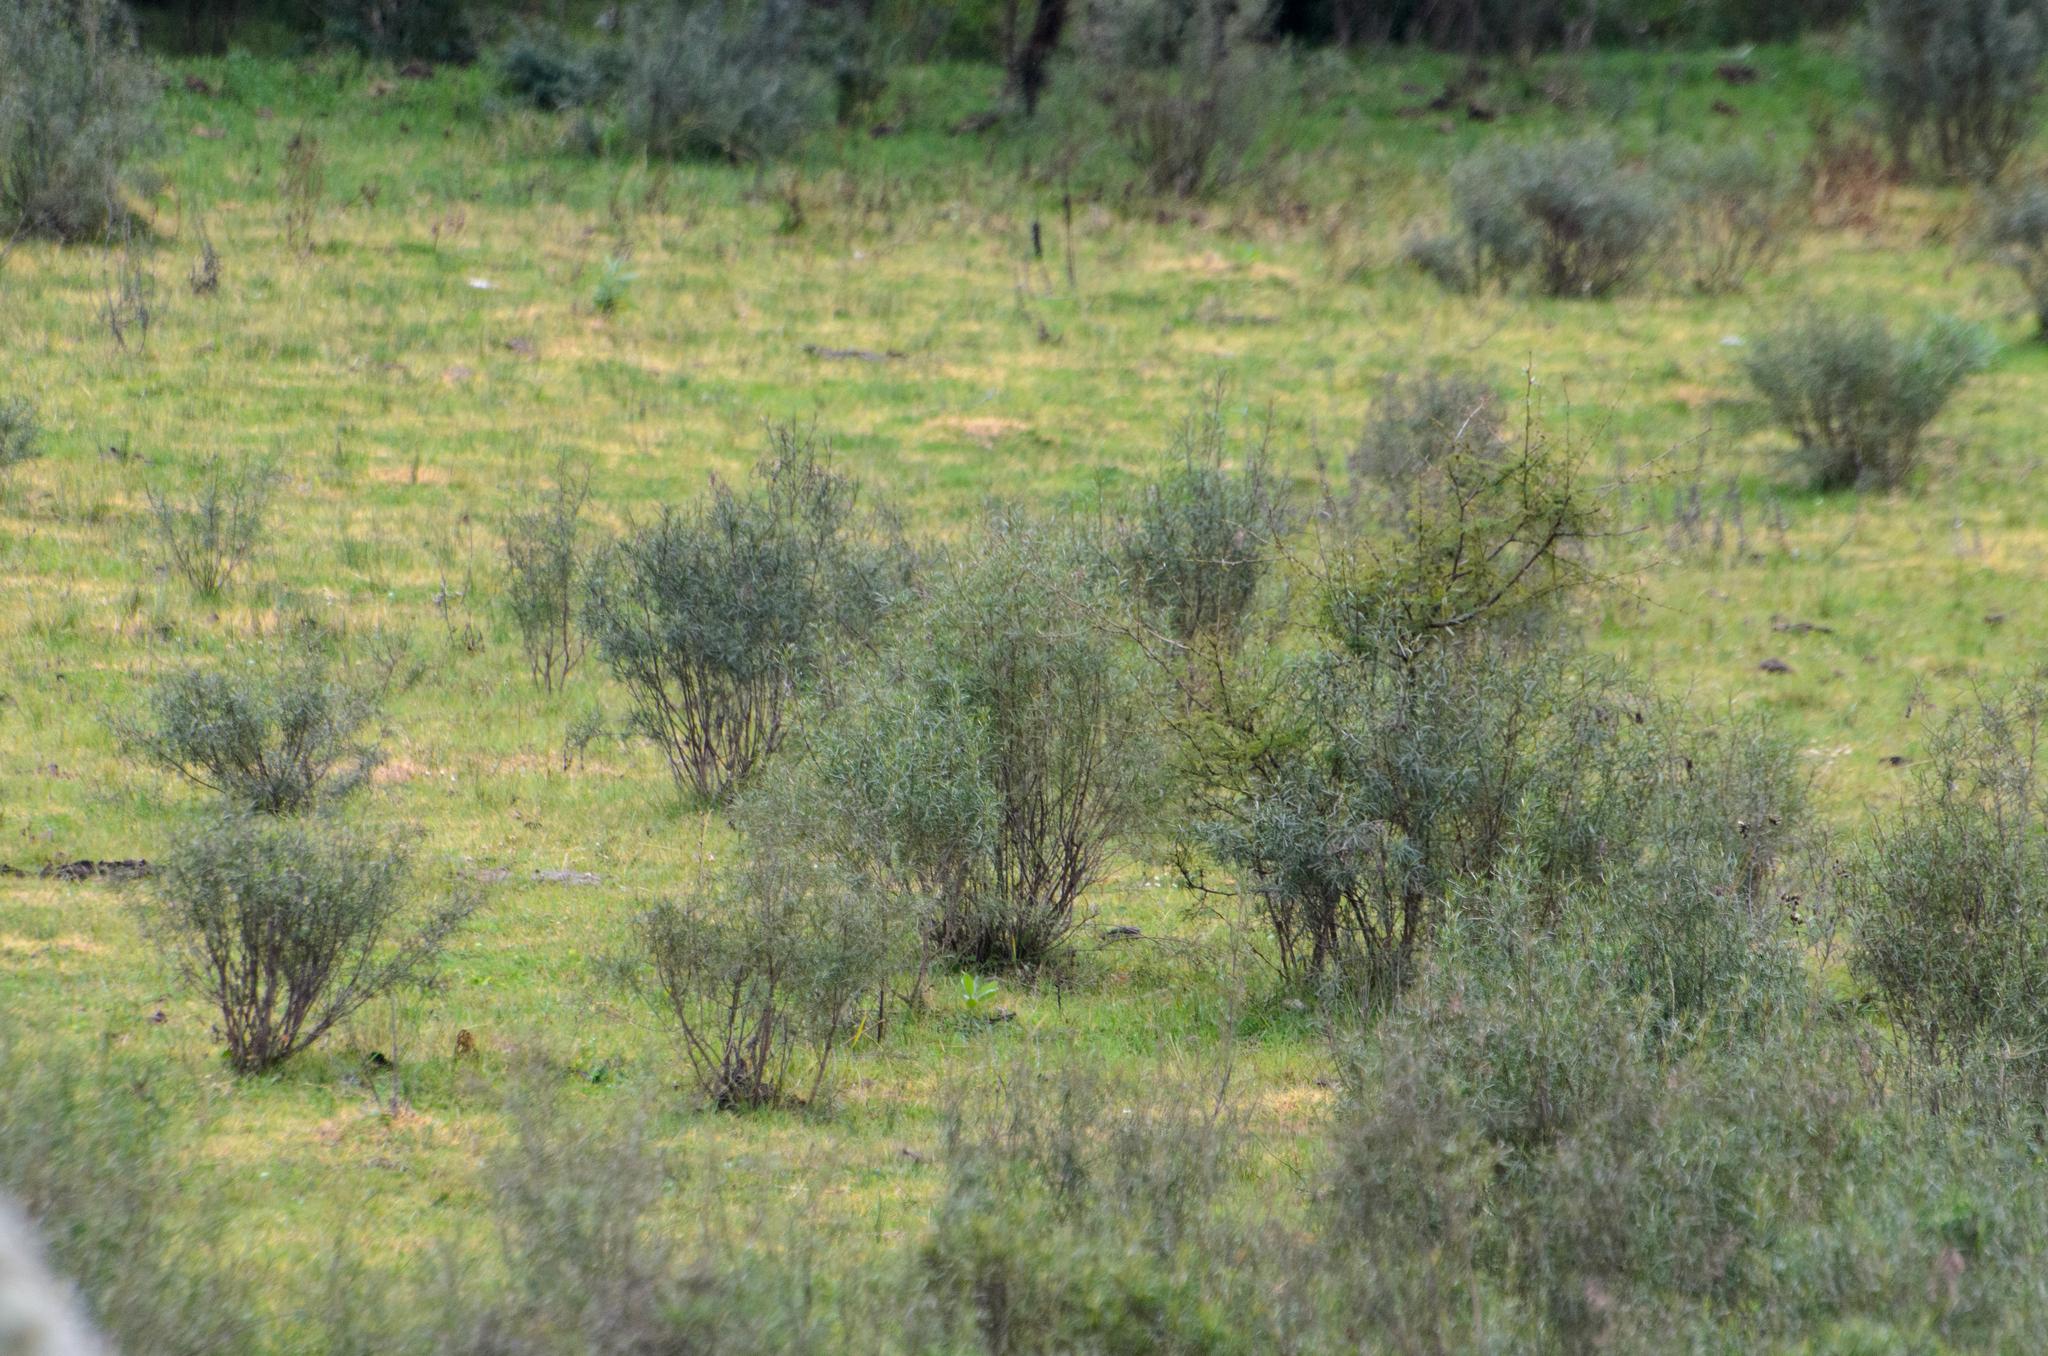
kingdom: Plantae
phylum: Tracheophyta
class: Magnoliopsida
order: Asterales
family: Asteraceae
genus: Acanthostyles
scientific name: Acanthostyles buniifolius
